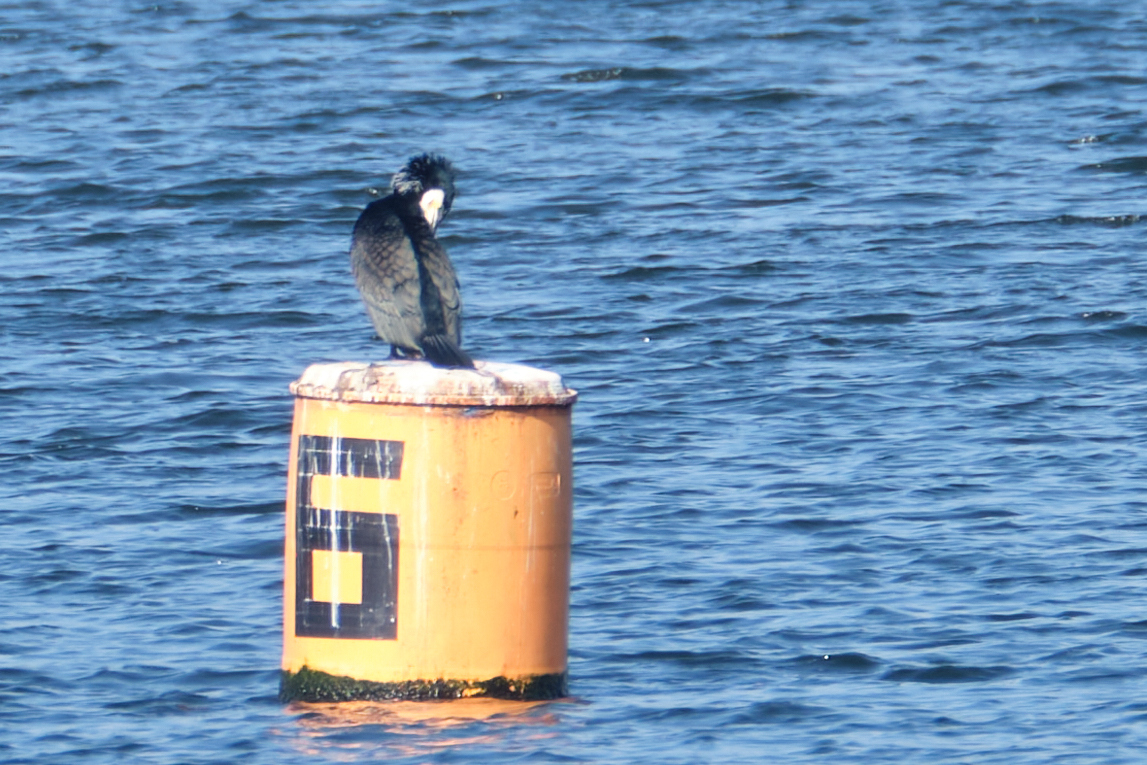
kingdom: Animalia
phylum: Chordata
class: Aves
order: Suliformes
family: Phalacrocoracidae
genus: Phalacrocorax
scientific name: Phalacrocorax carbo
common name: Great cormorant
